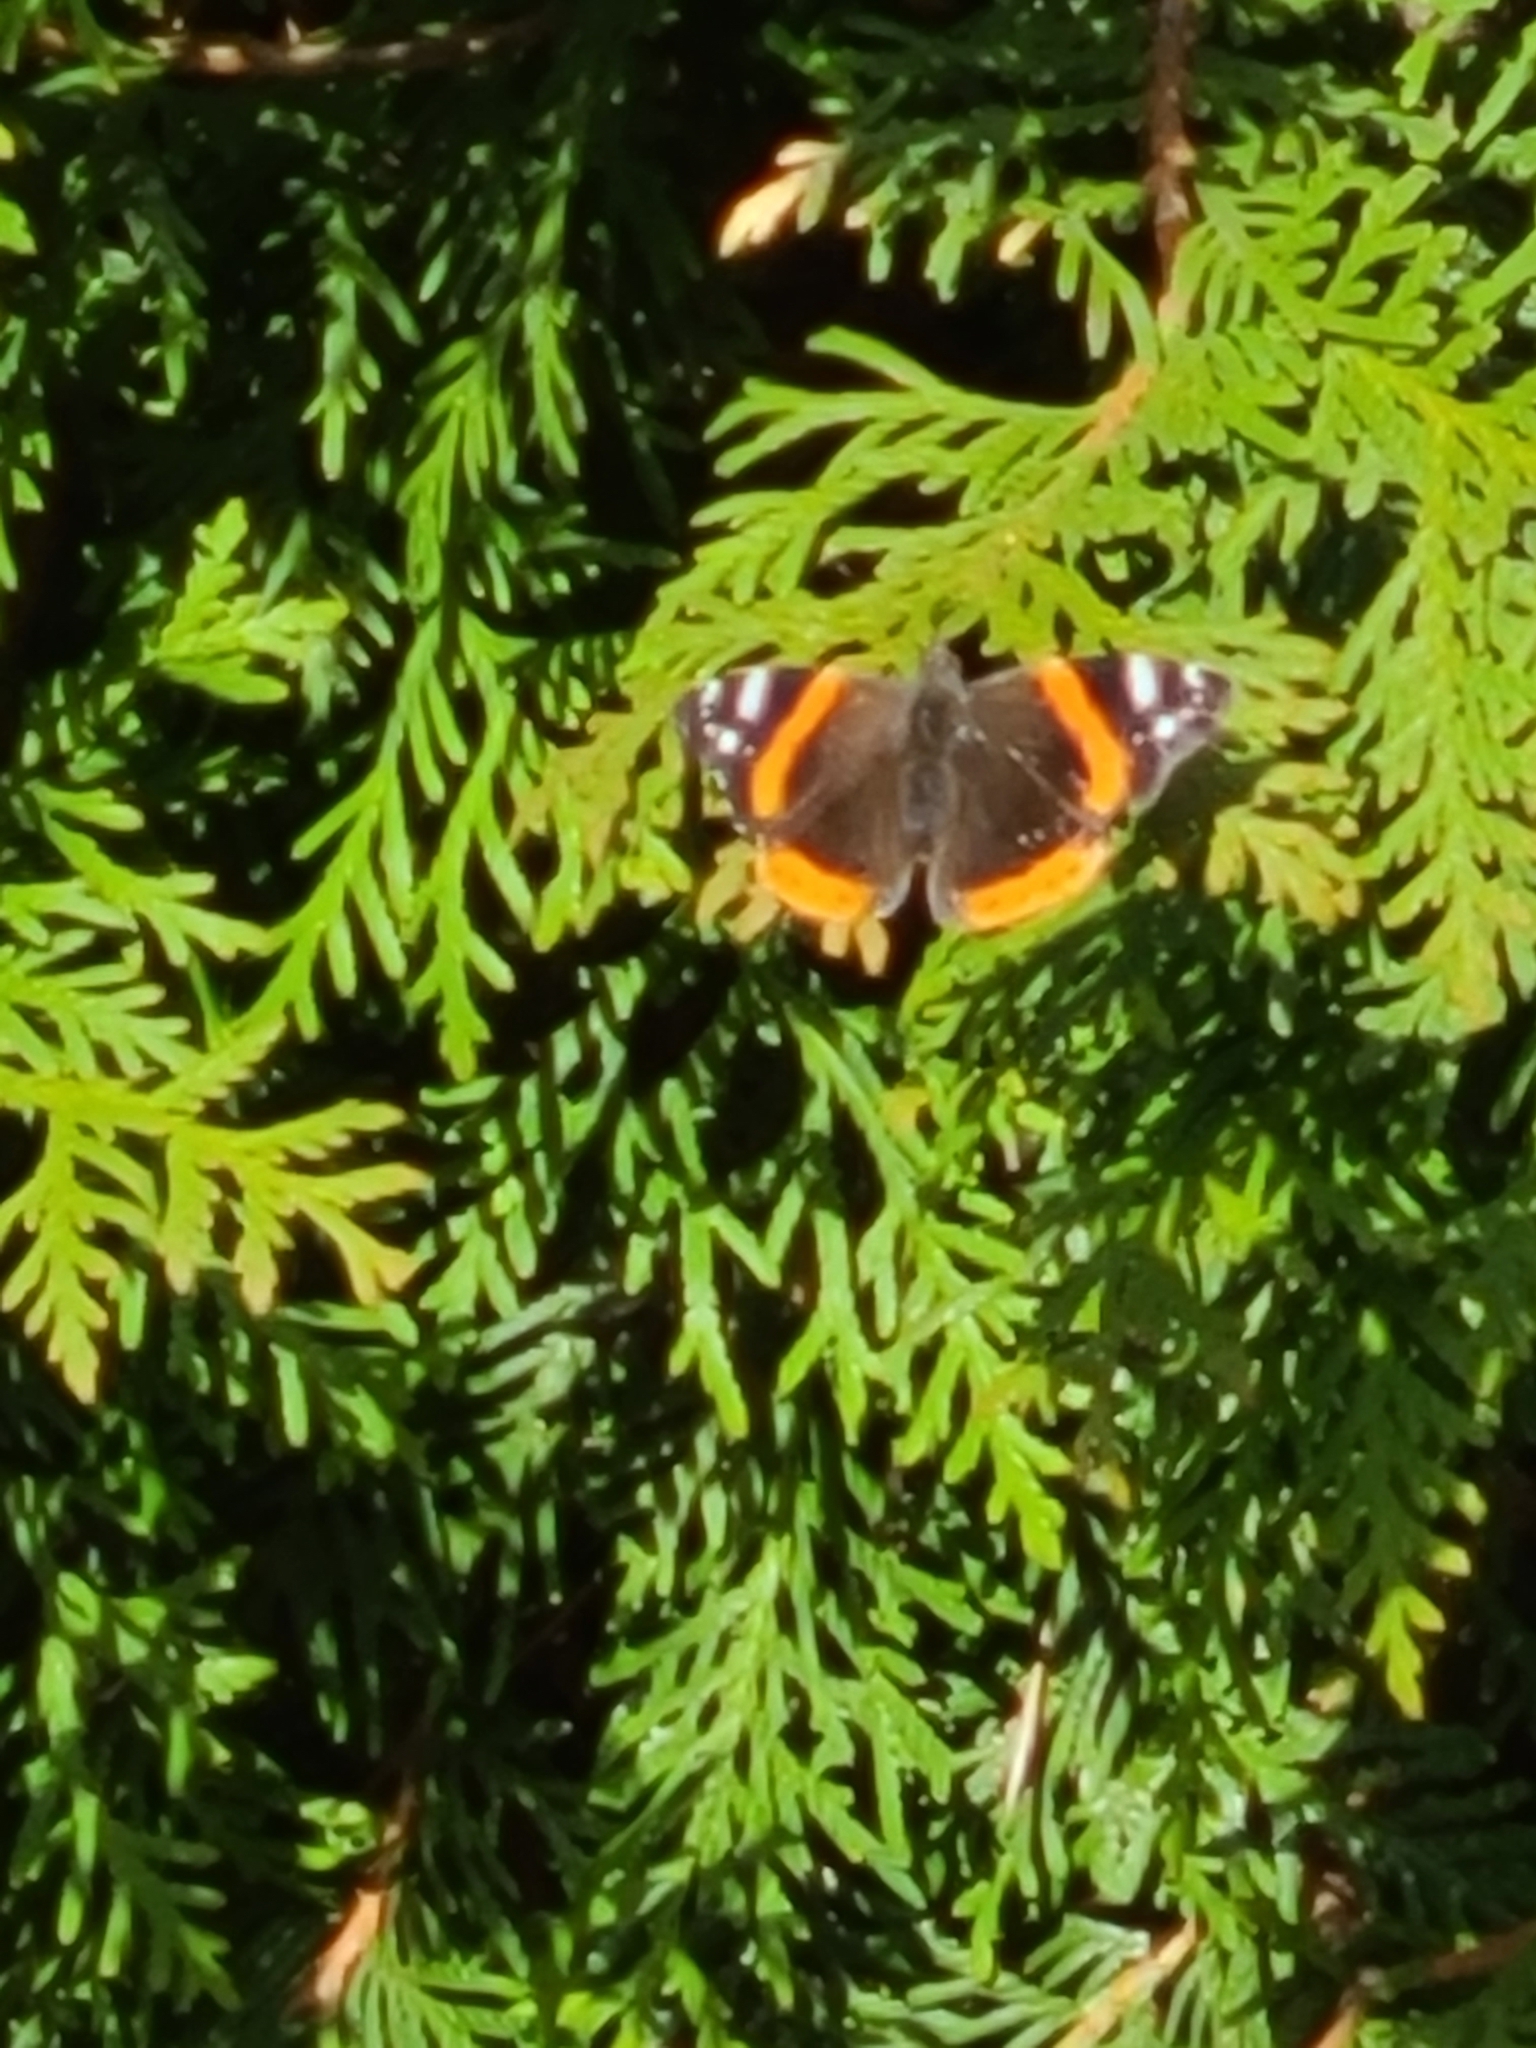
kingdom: Animalia
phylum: Arthropoda
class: Insecta
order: Lepidoptera
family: Nymphalidae
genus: Vanessa
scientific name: Vanessa atalanta
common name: Red admiral
